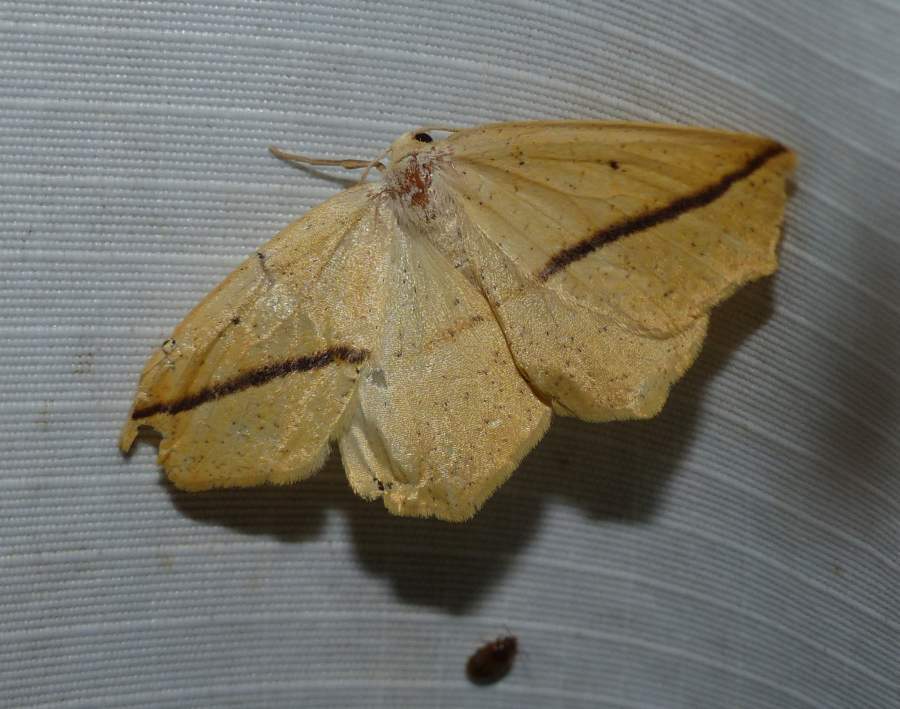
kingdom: Animalia
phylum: Arthropoda
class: Insecta
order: Lepidoptera
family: Geometridae
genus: Tetracis
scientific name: Tetracis crocallata
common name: Yellow slant-line
